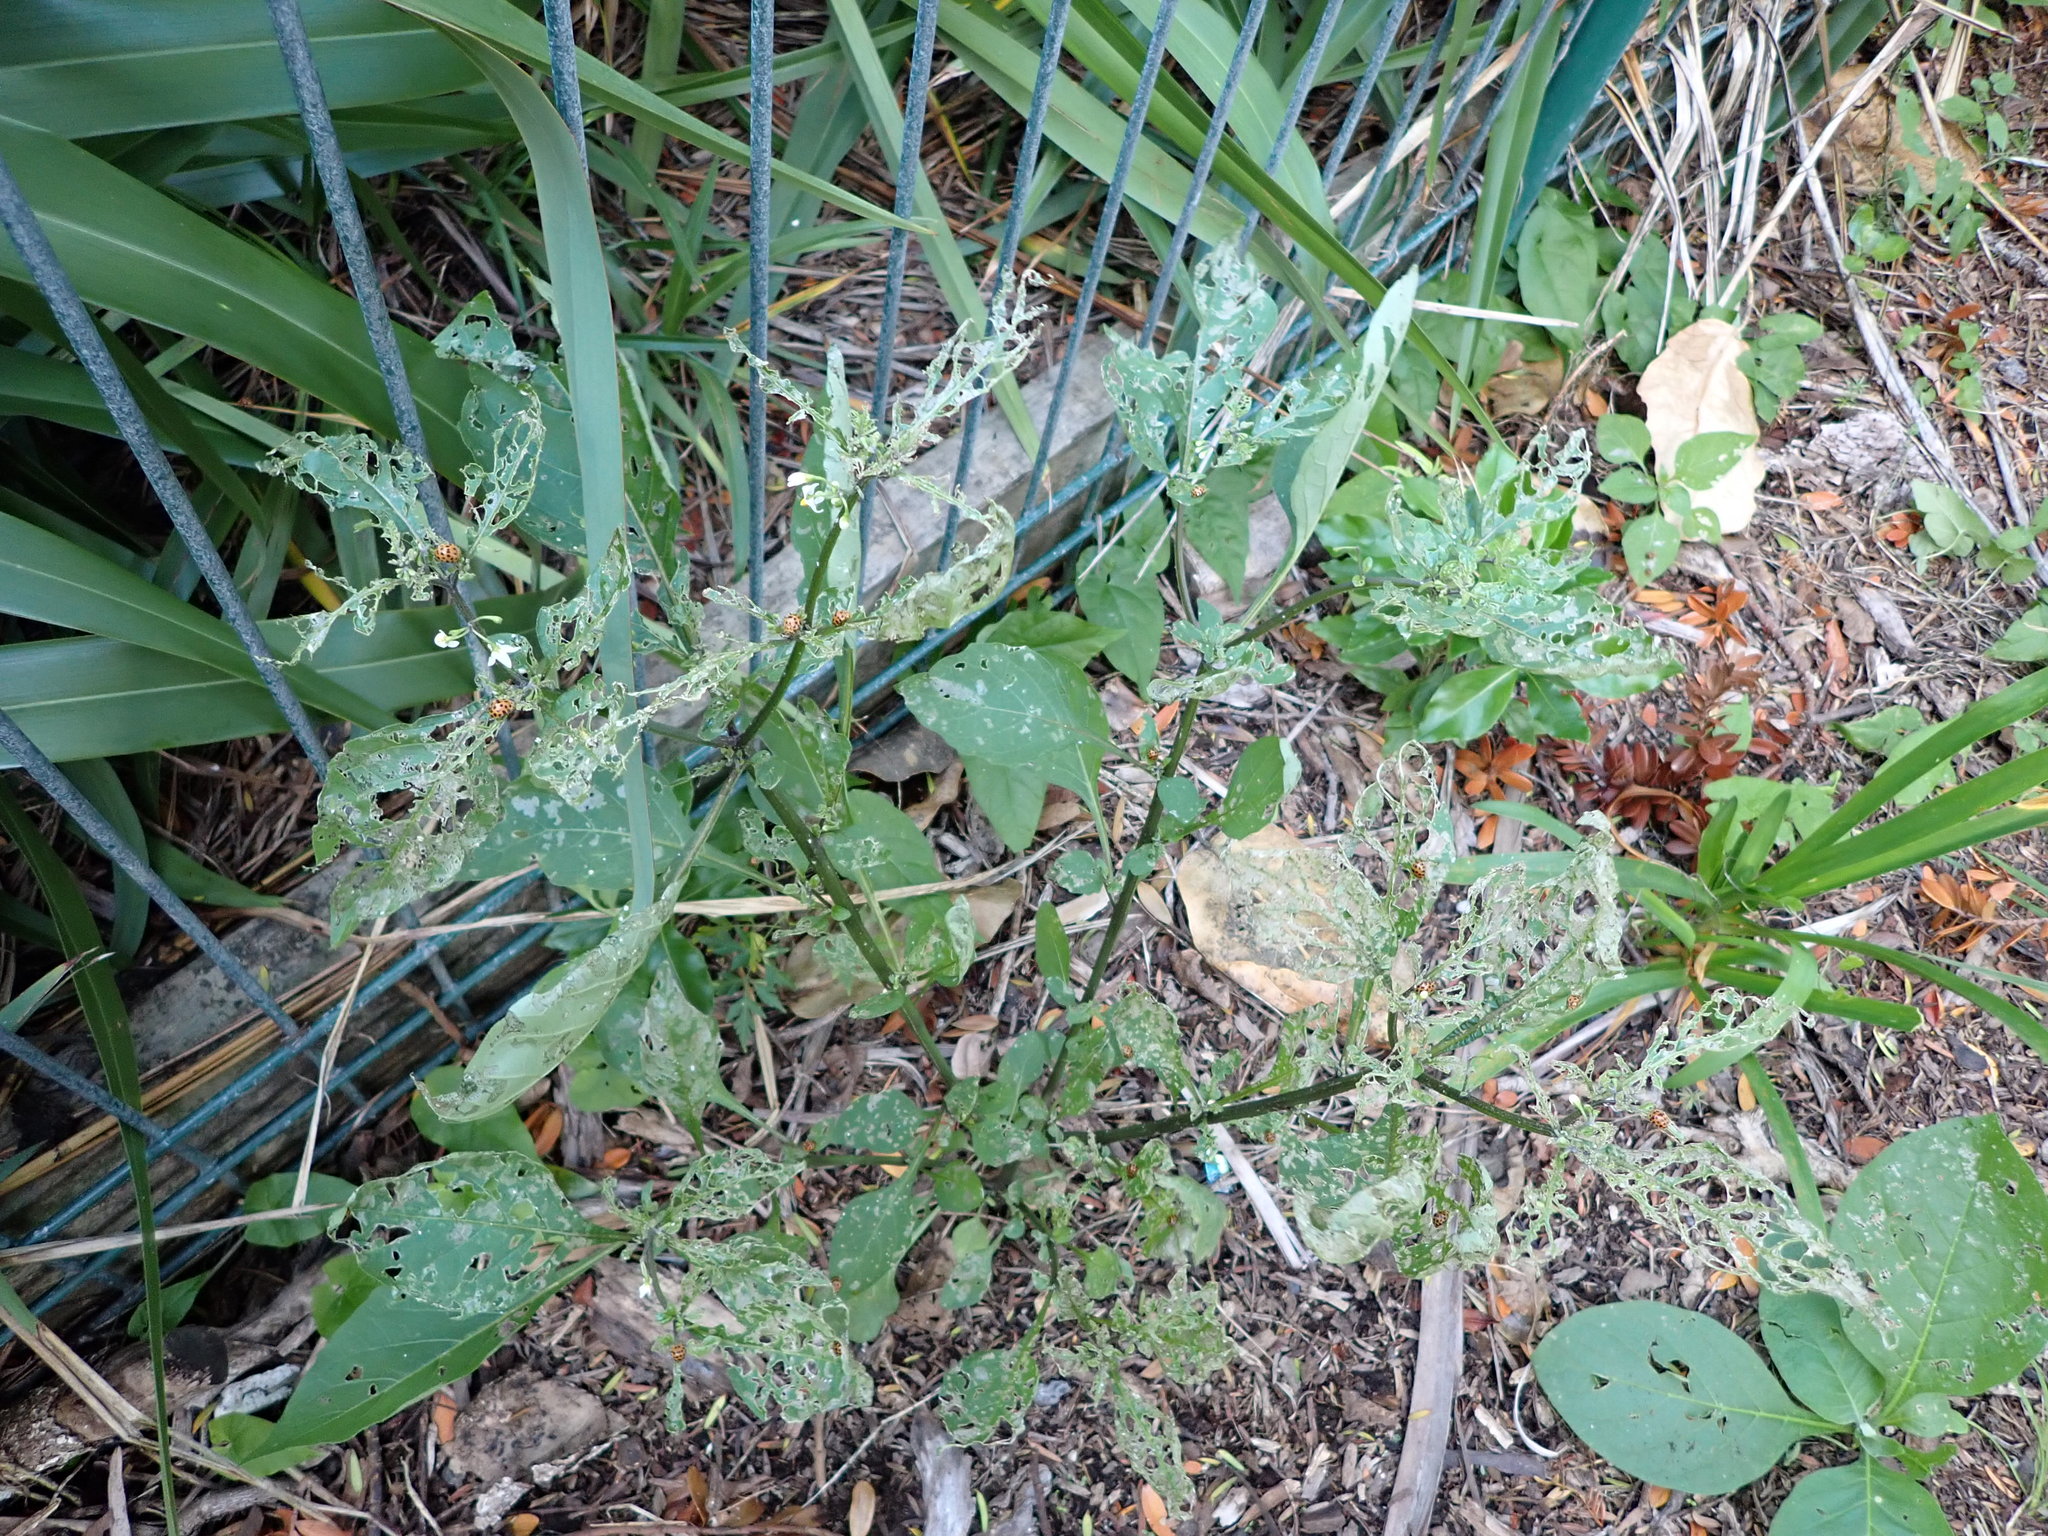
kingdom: Animalia
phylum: Arthropoda
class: Insecta
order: Coleoptera
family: Coccinellidae
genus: Henosepilachna
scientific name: Henosepilachna vigintioctopunctata
